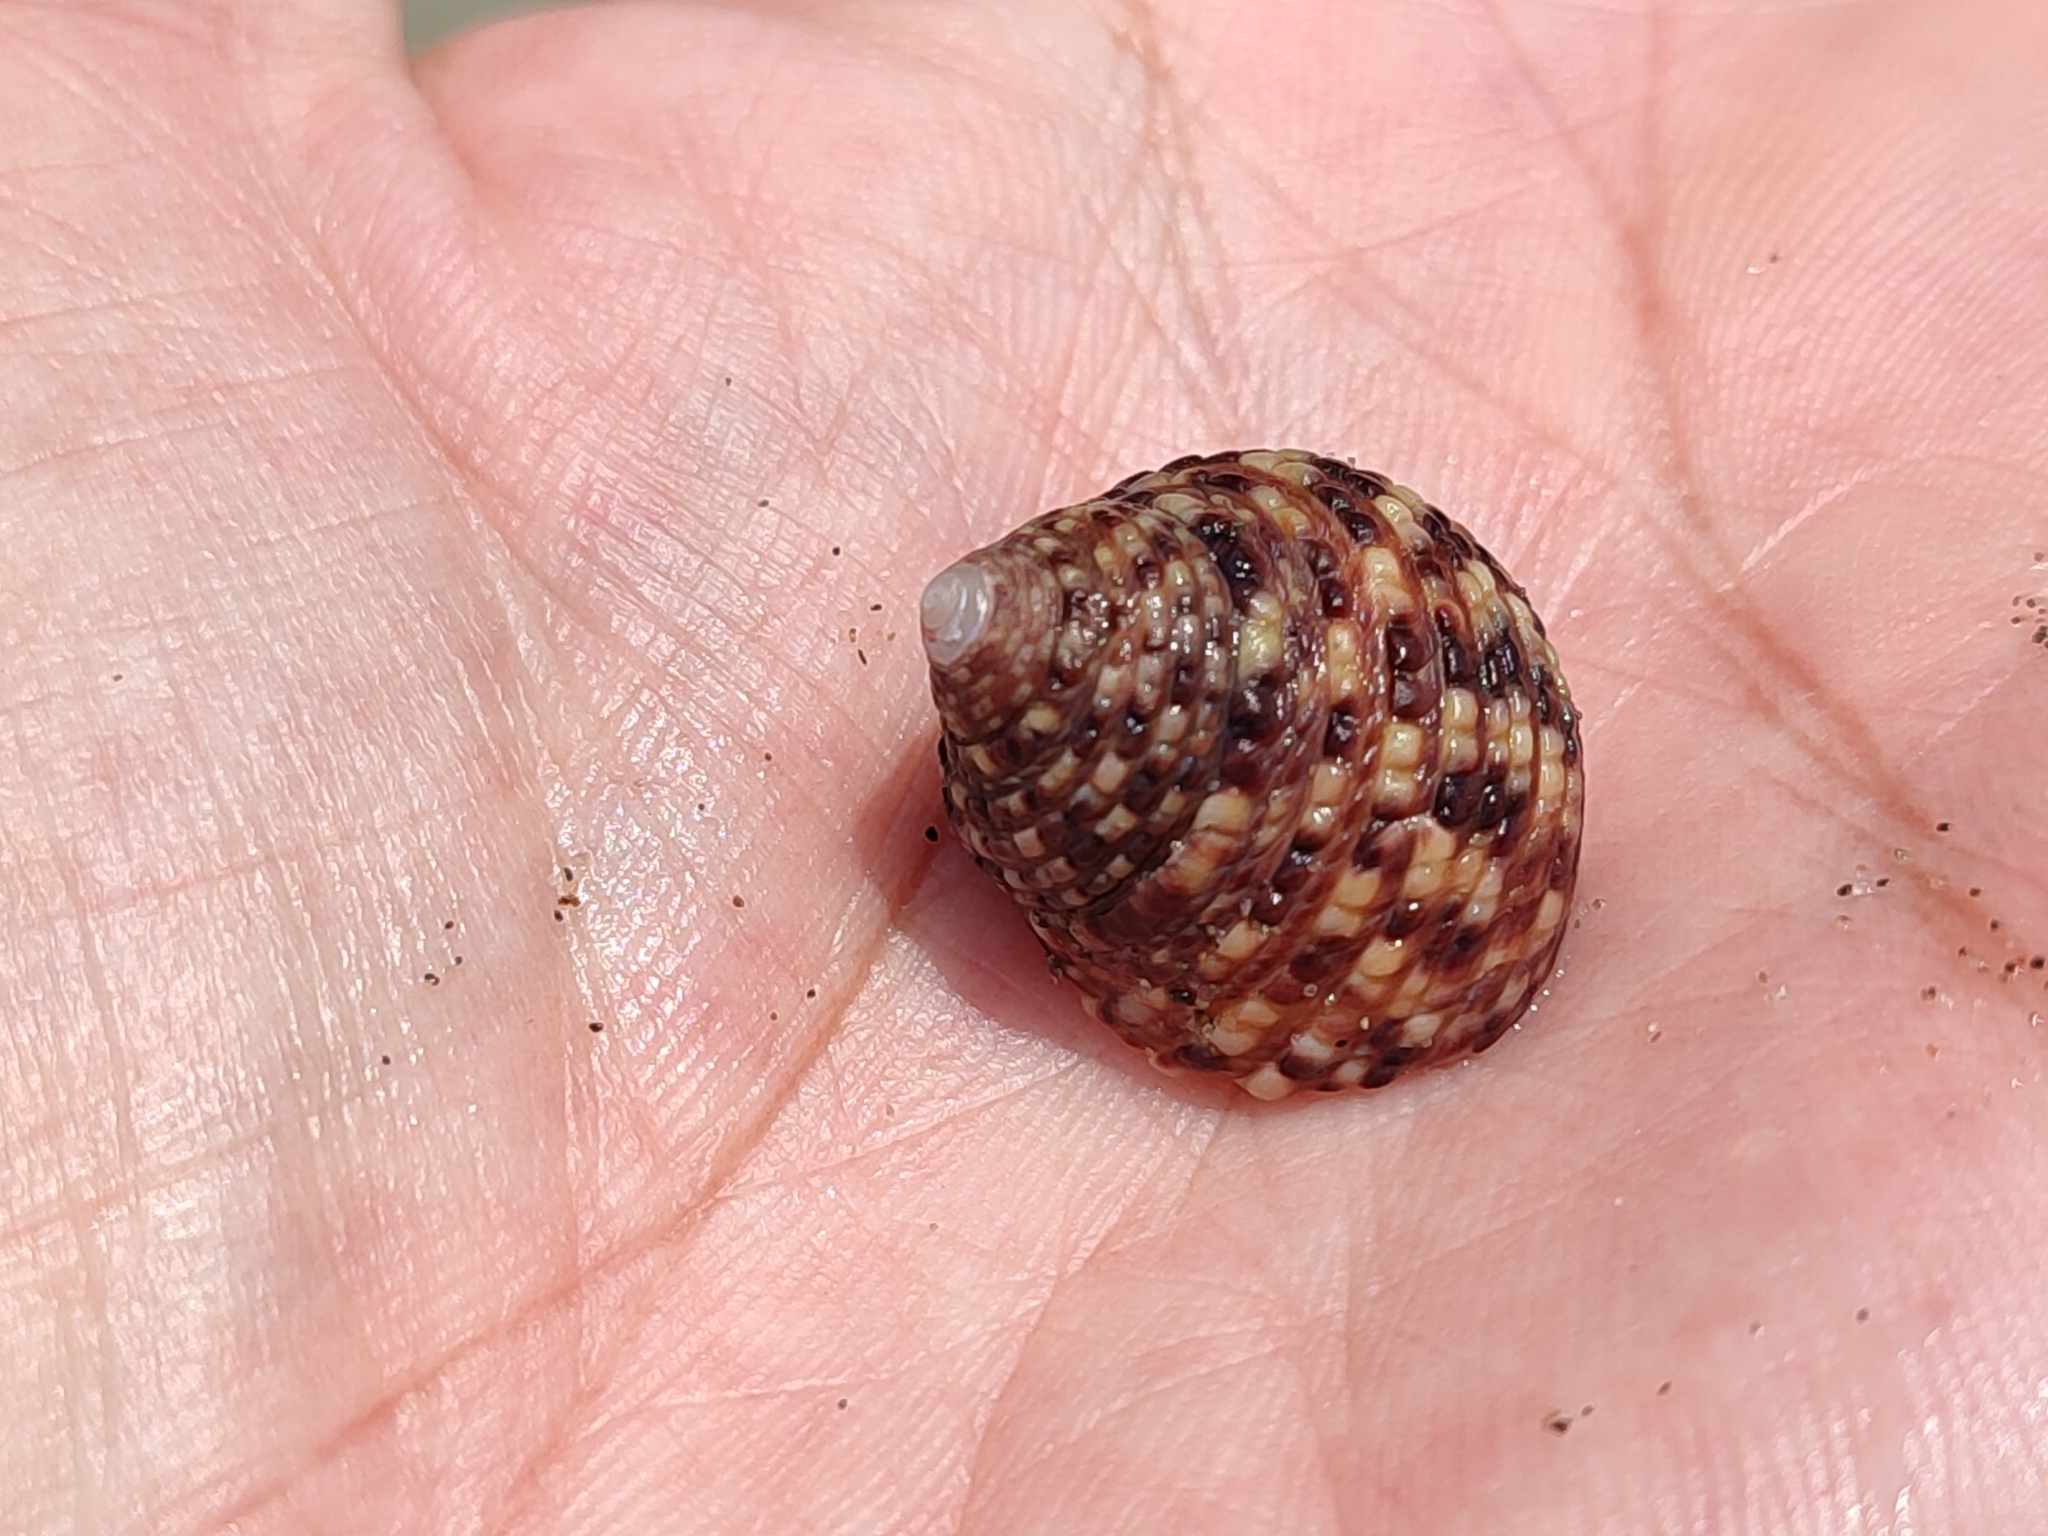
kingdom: Animalia
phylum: Mollusca
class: Gastropoda
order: Trochida
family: Trochidae
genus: Monodonta
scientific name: Monodonta labio
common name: Labio
